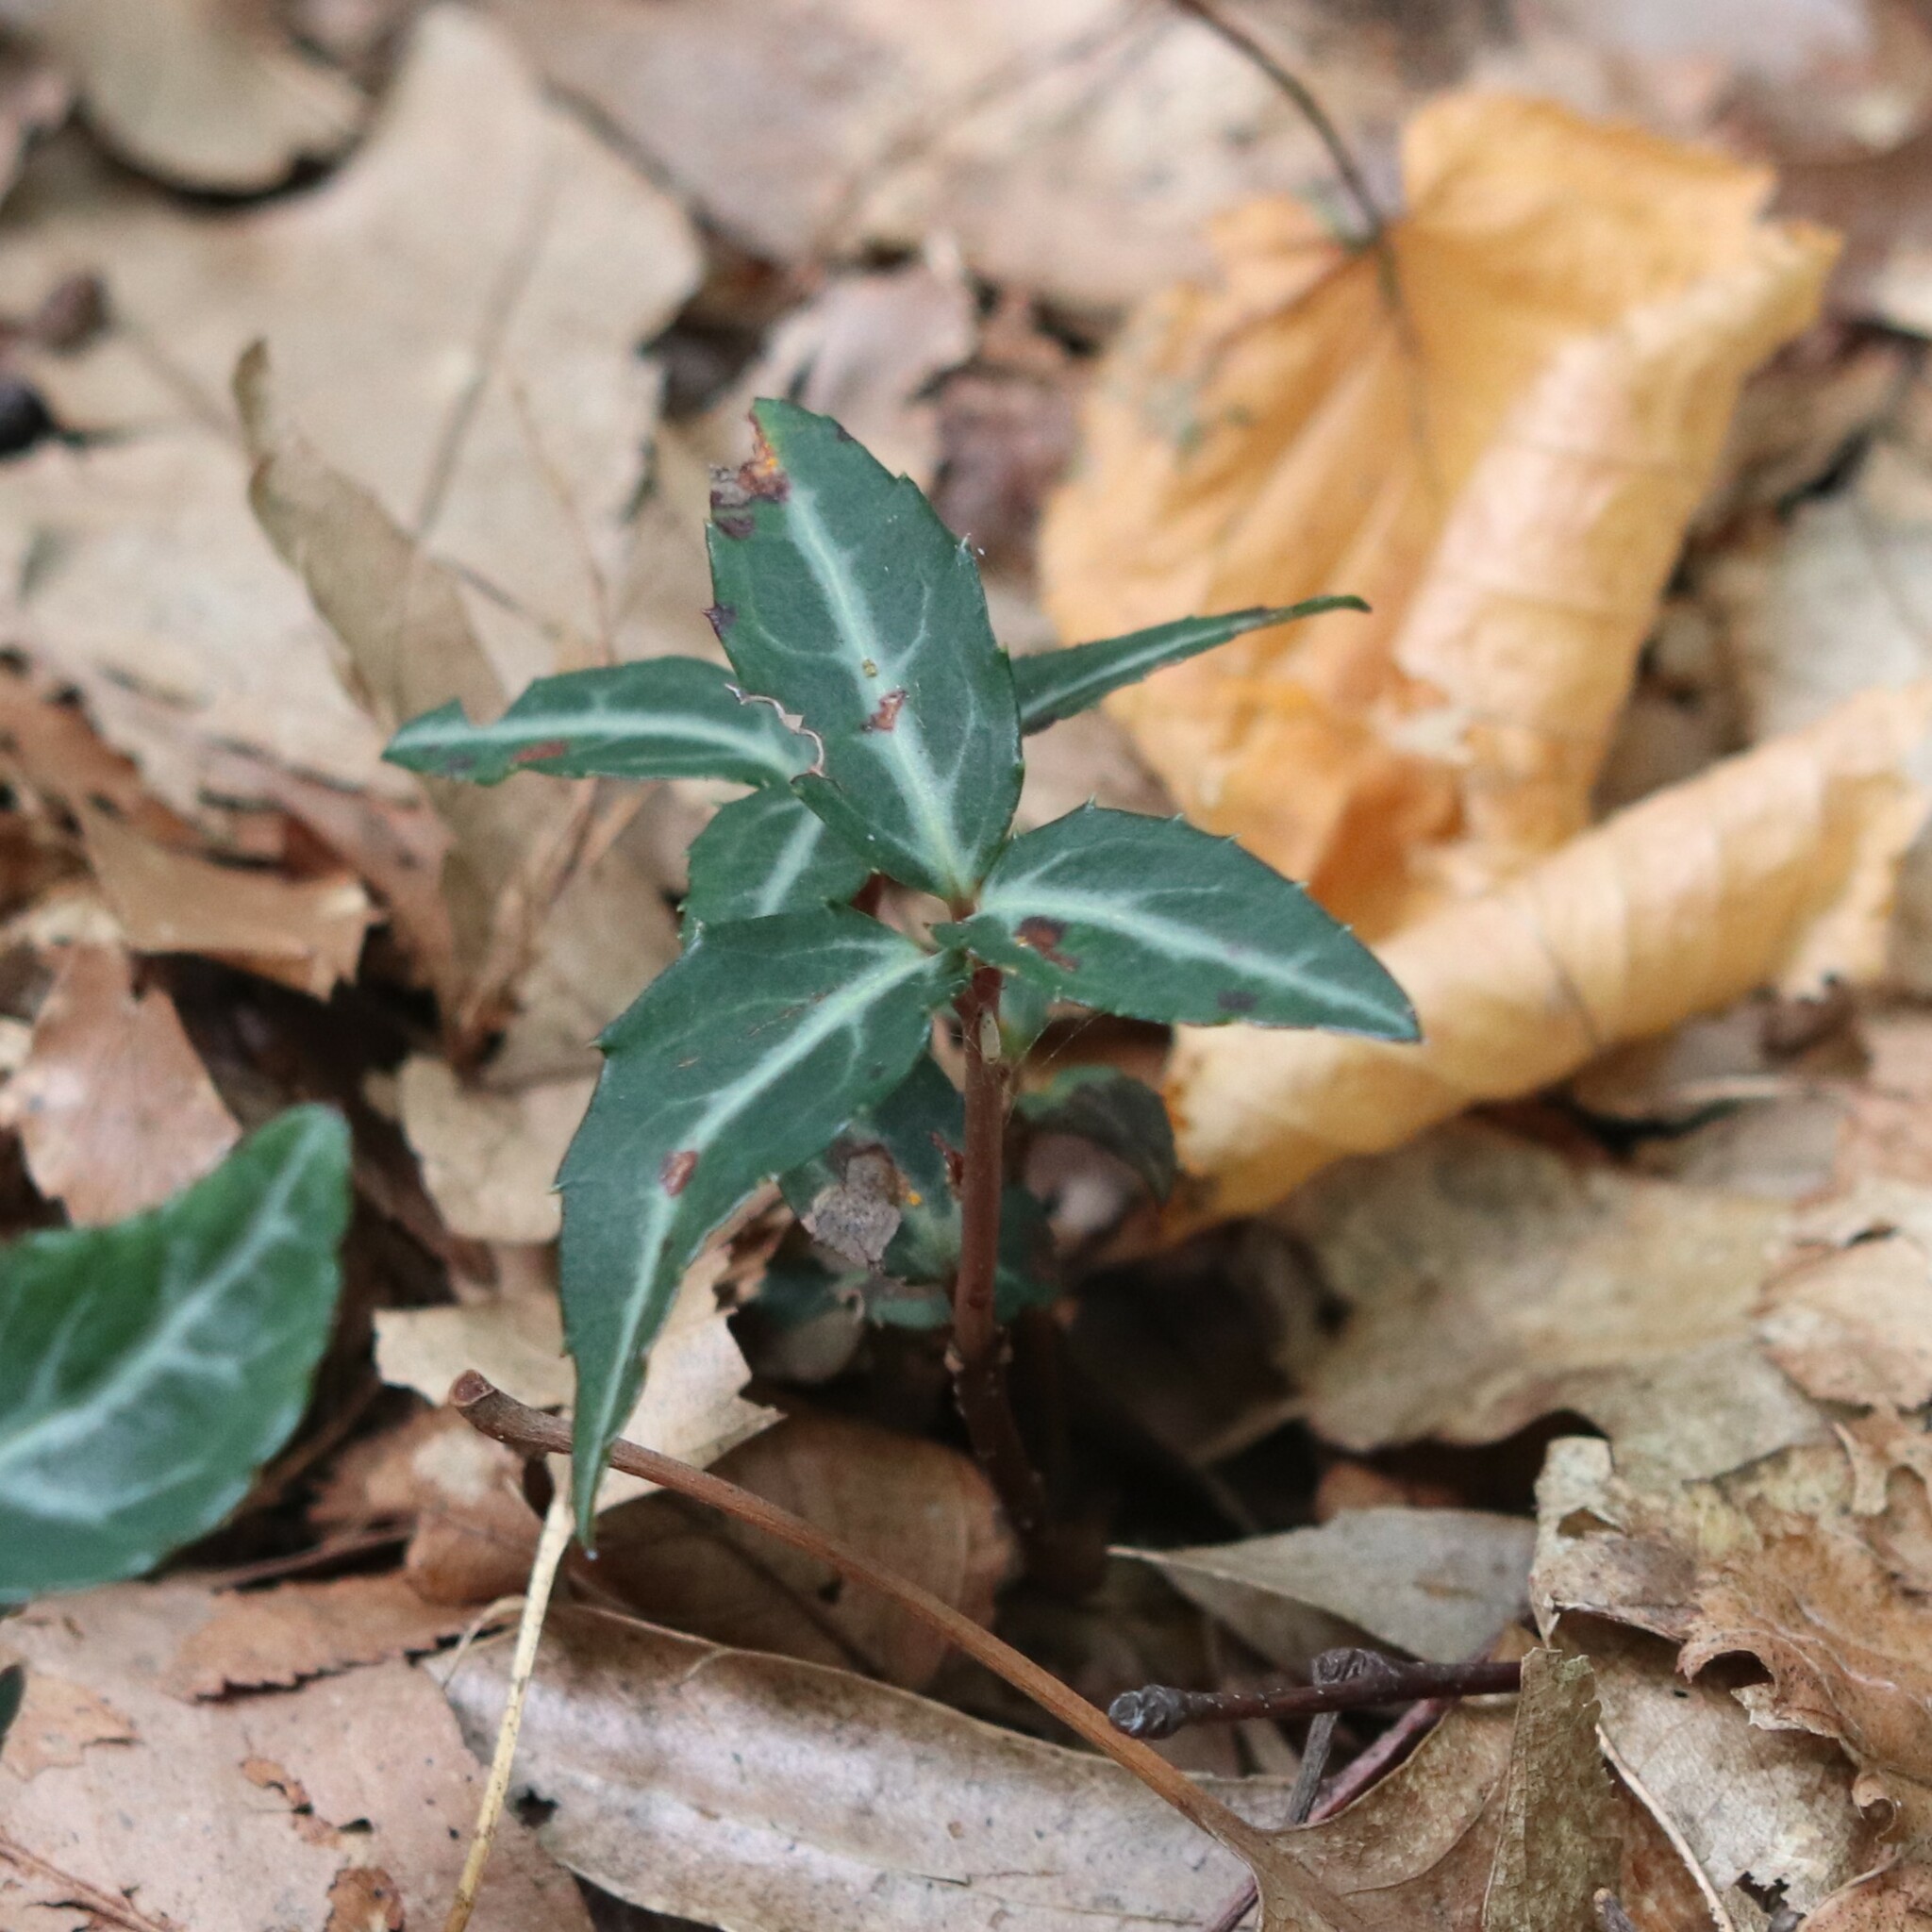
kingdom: Plantae
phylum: Tracheophyta
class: Magnoliopsida
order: Ericales
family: Ericaceae
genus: Chimaphila
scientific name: Chimaphila maculata
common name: Spotted pipsissewa
